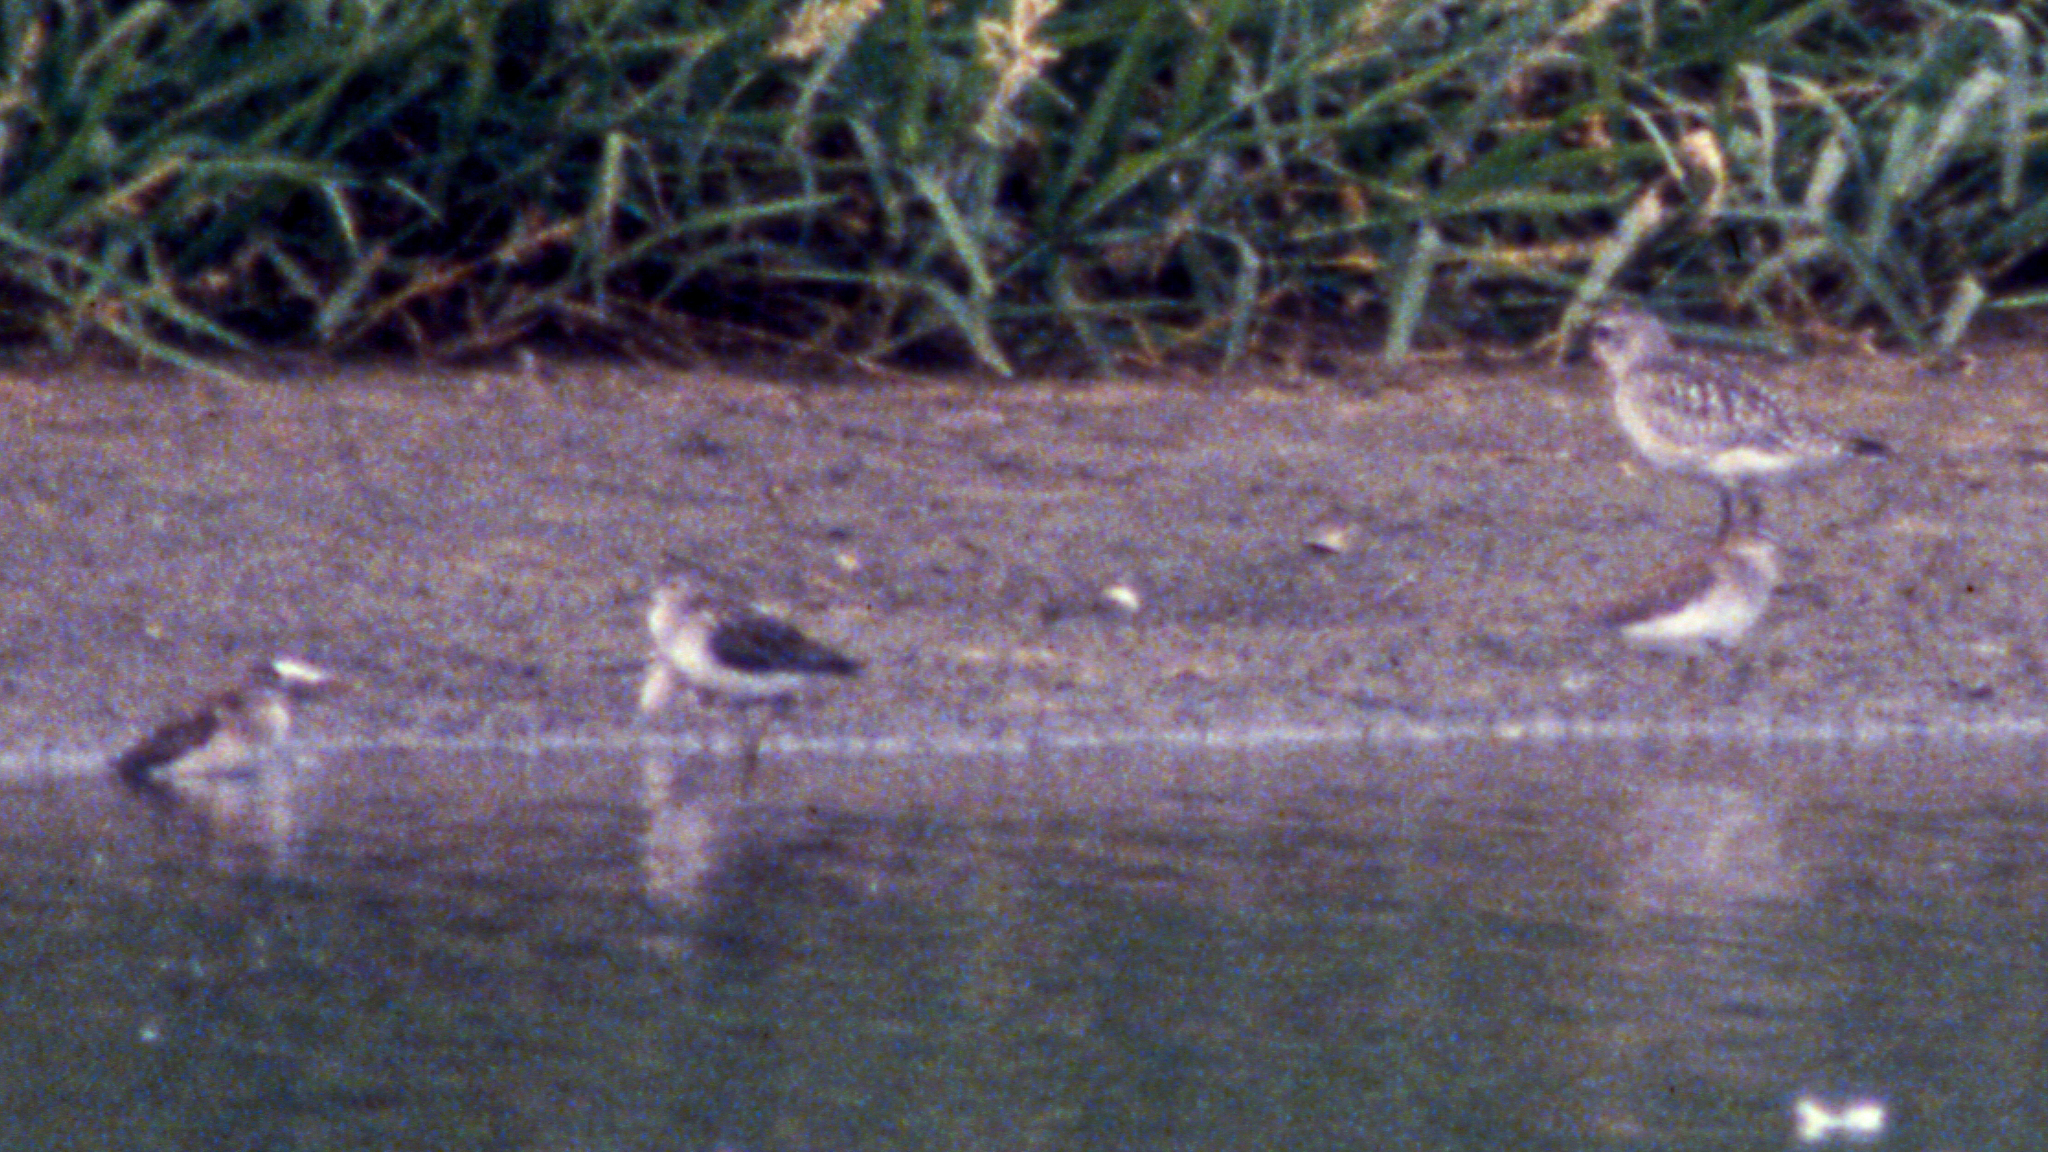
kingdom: Animalia
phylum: Chordata
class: Aves
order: Charadriiformes
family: Charadriidae
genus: Pluvialis
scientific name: Pluvialis squatarola
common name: Grey plover
